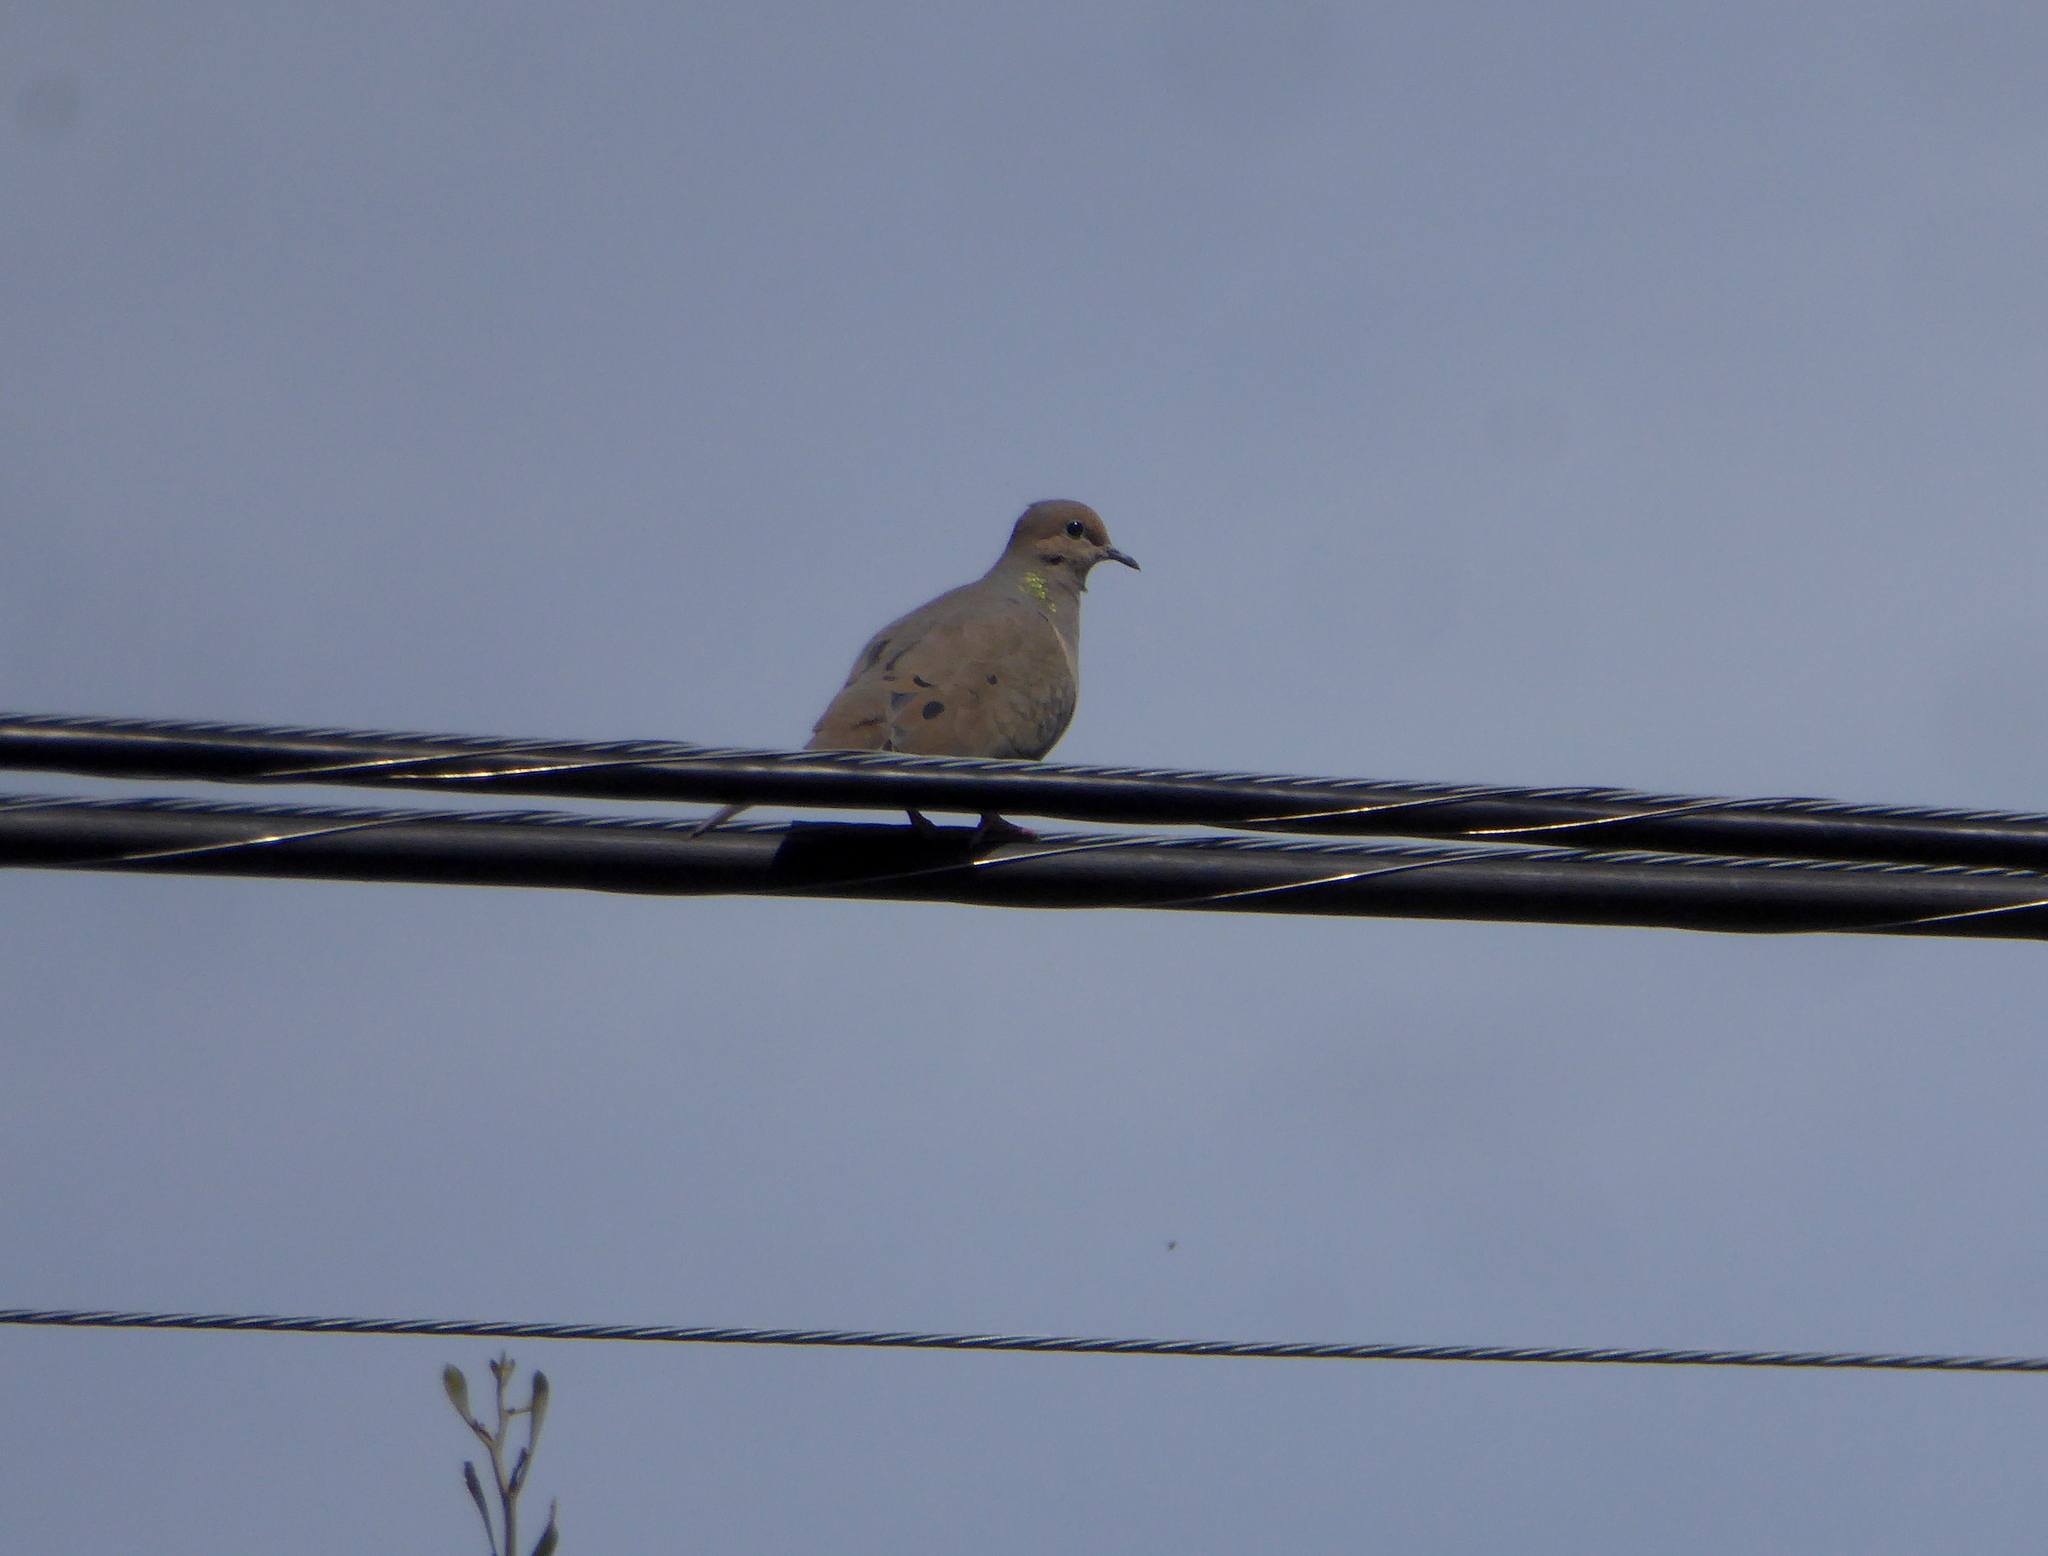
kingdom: Animalia
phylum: Chordata
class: Aves
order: Columbiformes
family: Columbidae
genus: Zenaida
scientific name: Zenaida macroura
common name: Mourning dove
